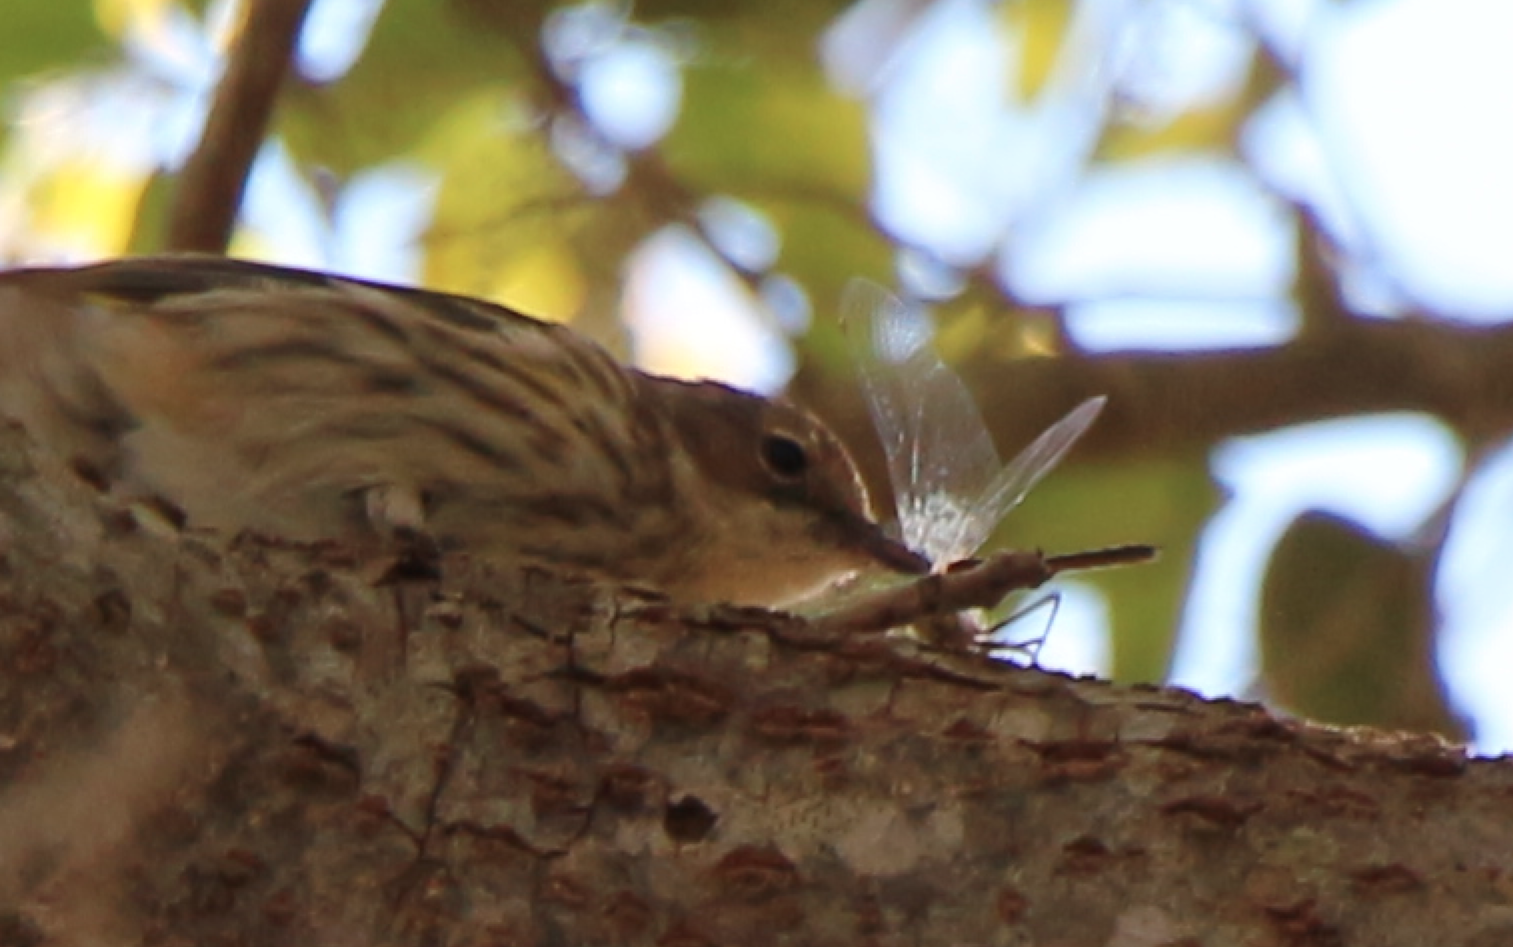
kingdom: Animalia
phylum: Chordata
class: Aves
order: Passeriformes
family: Parulidae
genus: Setophaga
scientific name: Setophaga coronata
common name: Myrtle warbler
